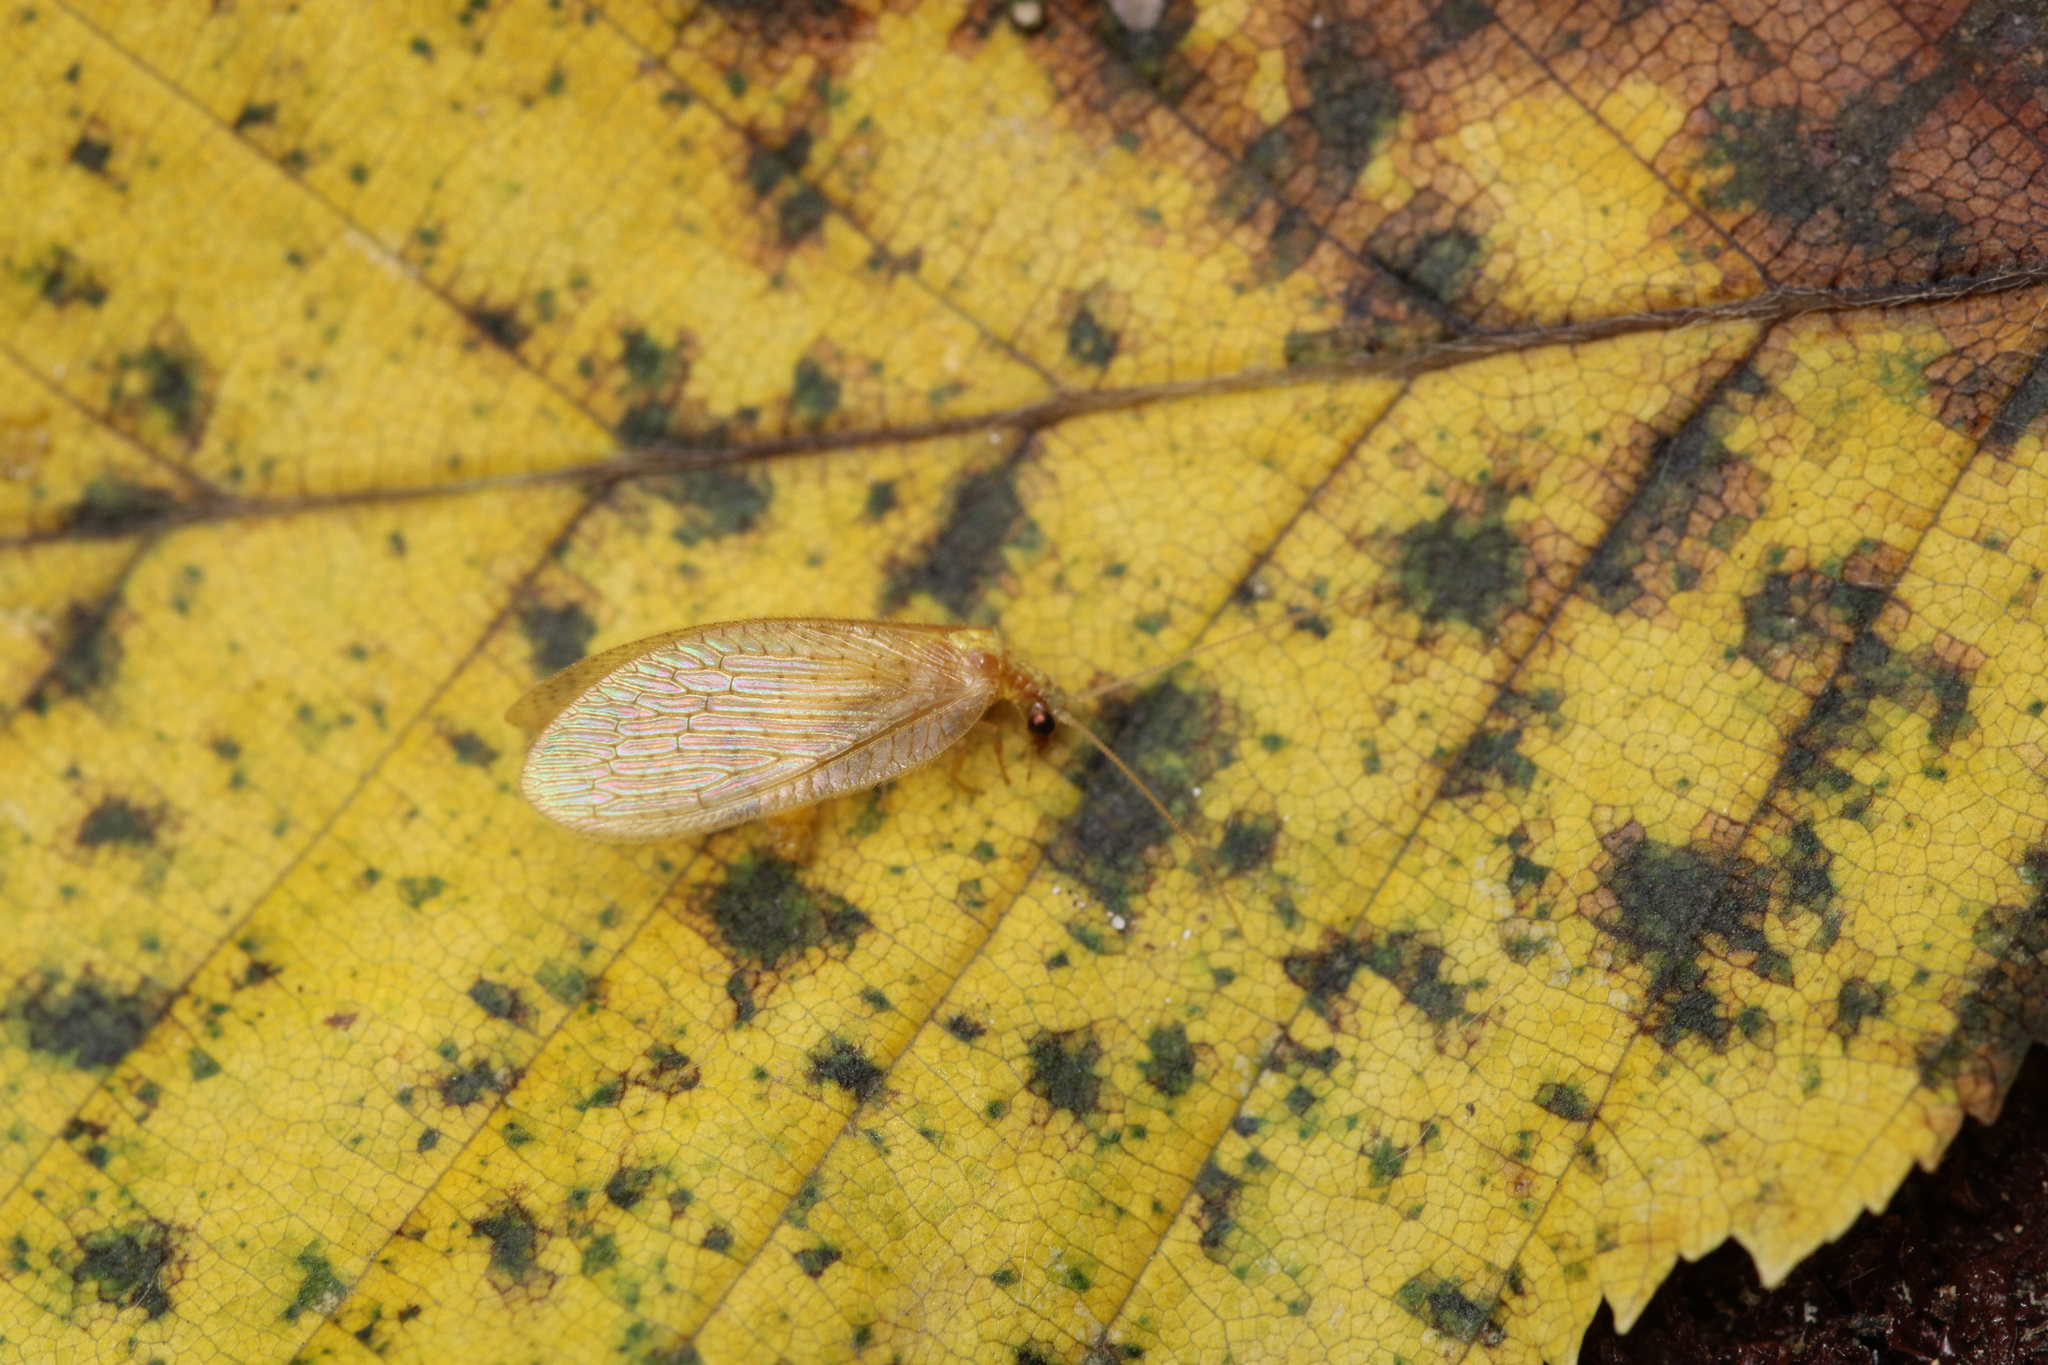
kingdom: Animalia
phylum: Arthropoda
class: Insecta
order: Neuroptera
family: Hemerobiidae
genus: Hemerobius
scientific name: Hemerobius micans
